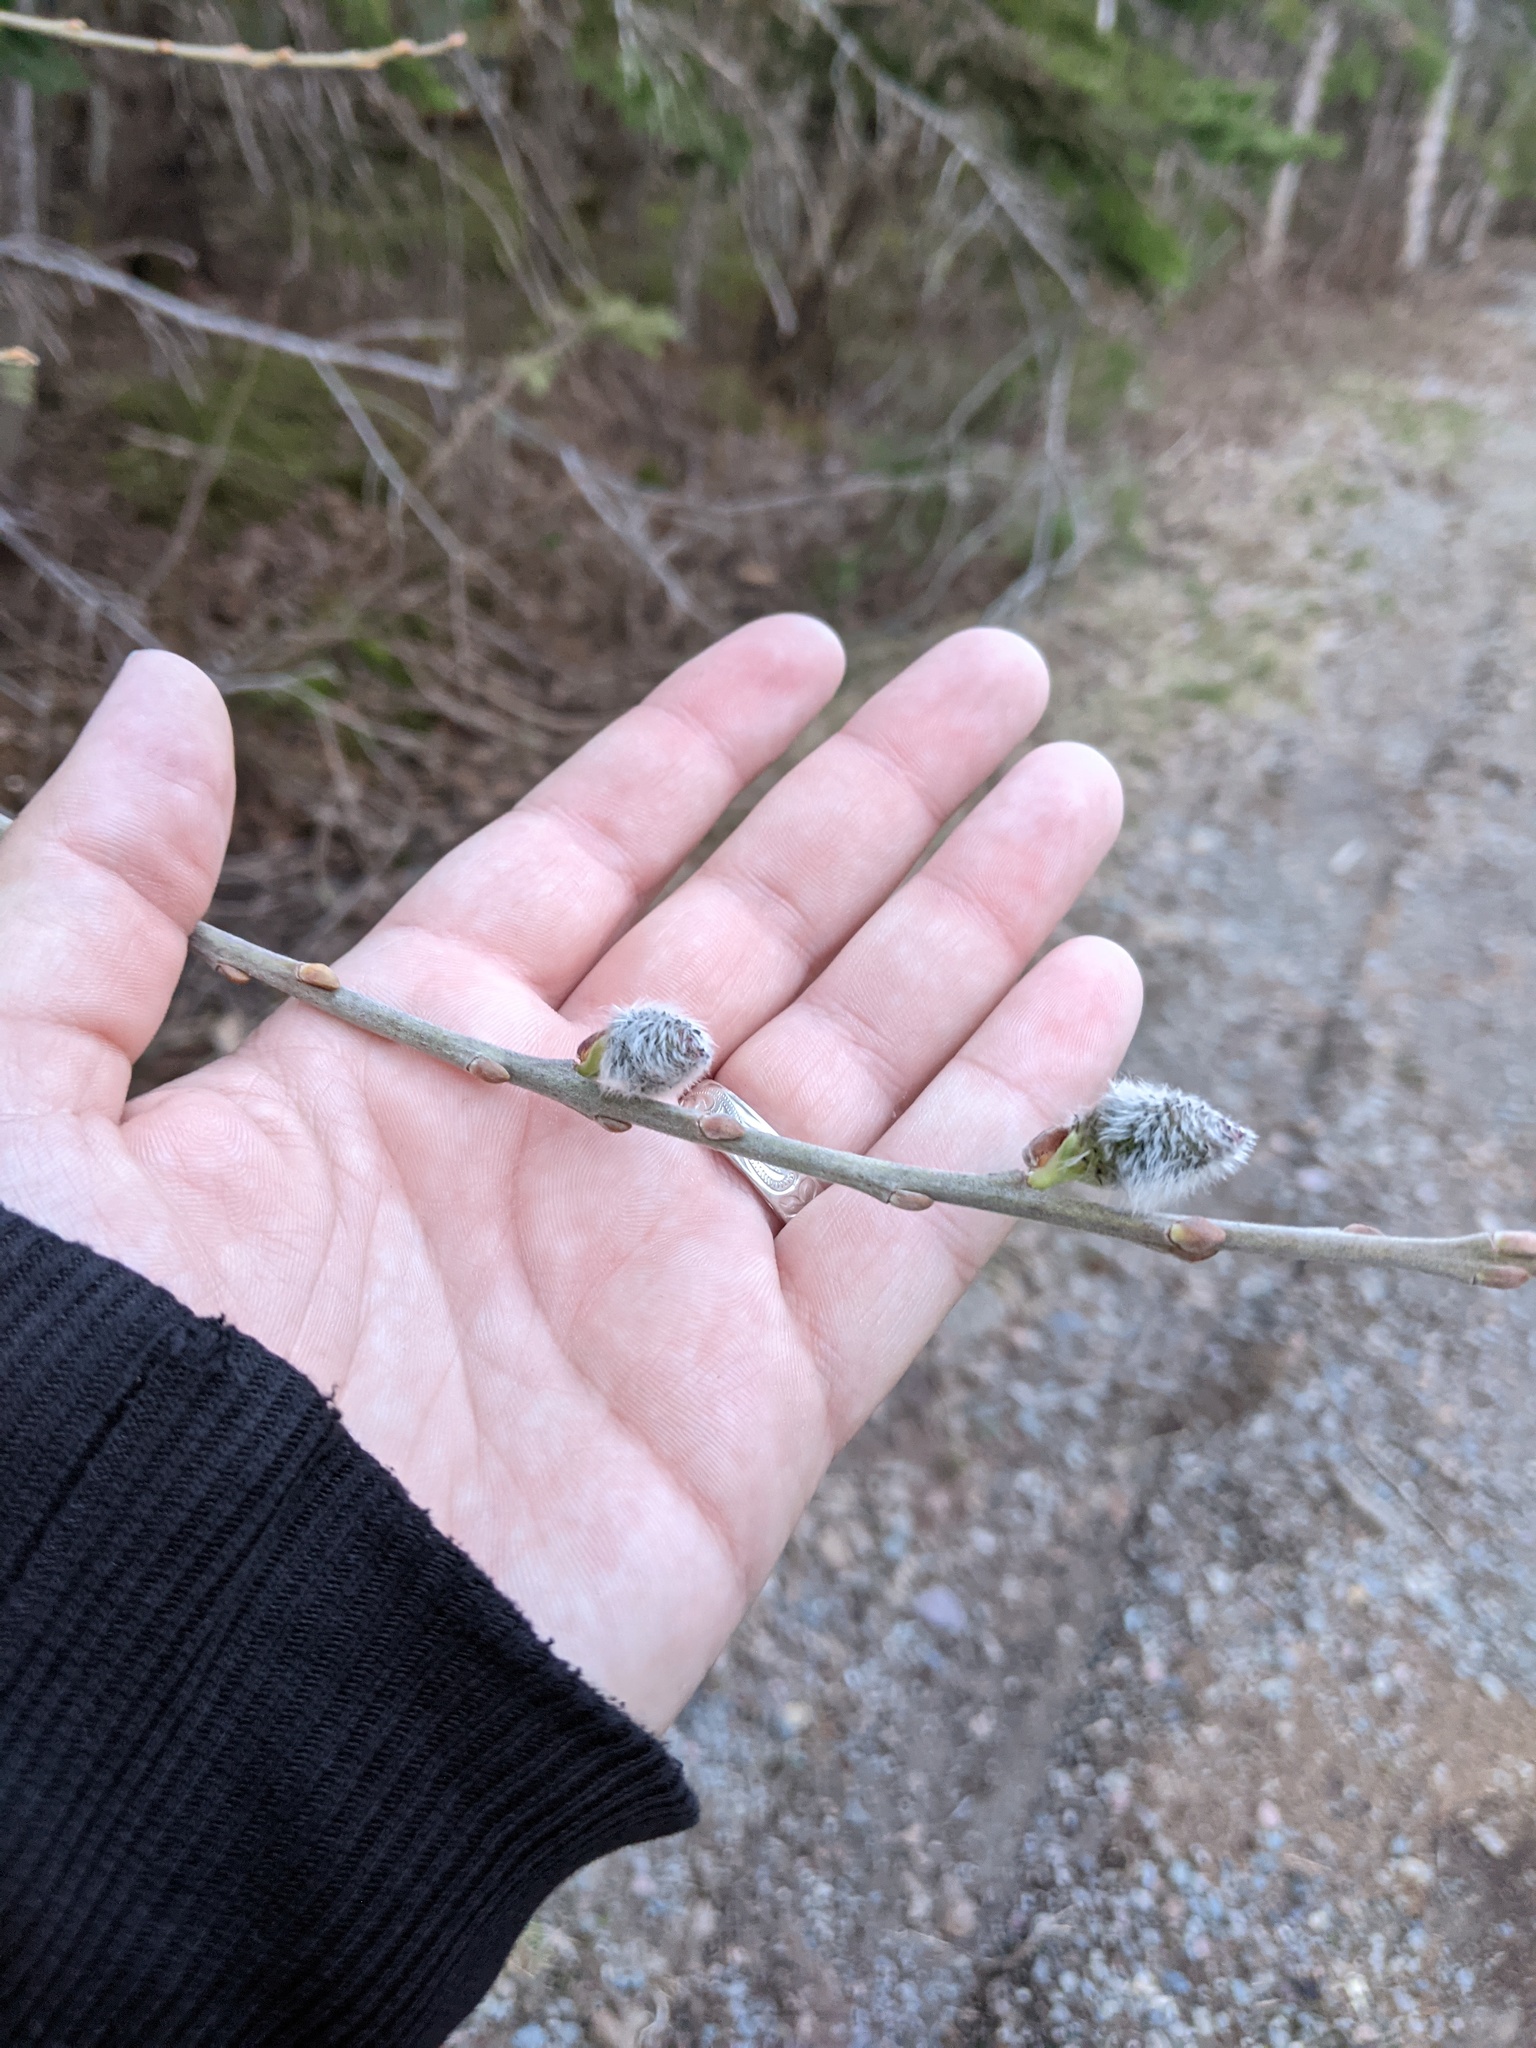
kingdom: Plantae
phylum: Tracheophyta
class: Magnoliopsida
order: Malpighiales
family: Salicaceae
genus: Salix
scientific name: Salix discolor
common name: Glaucous willow
